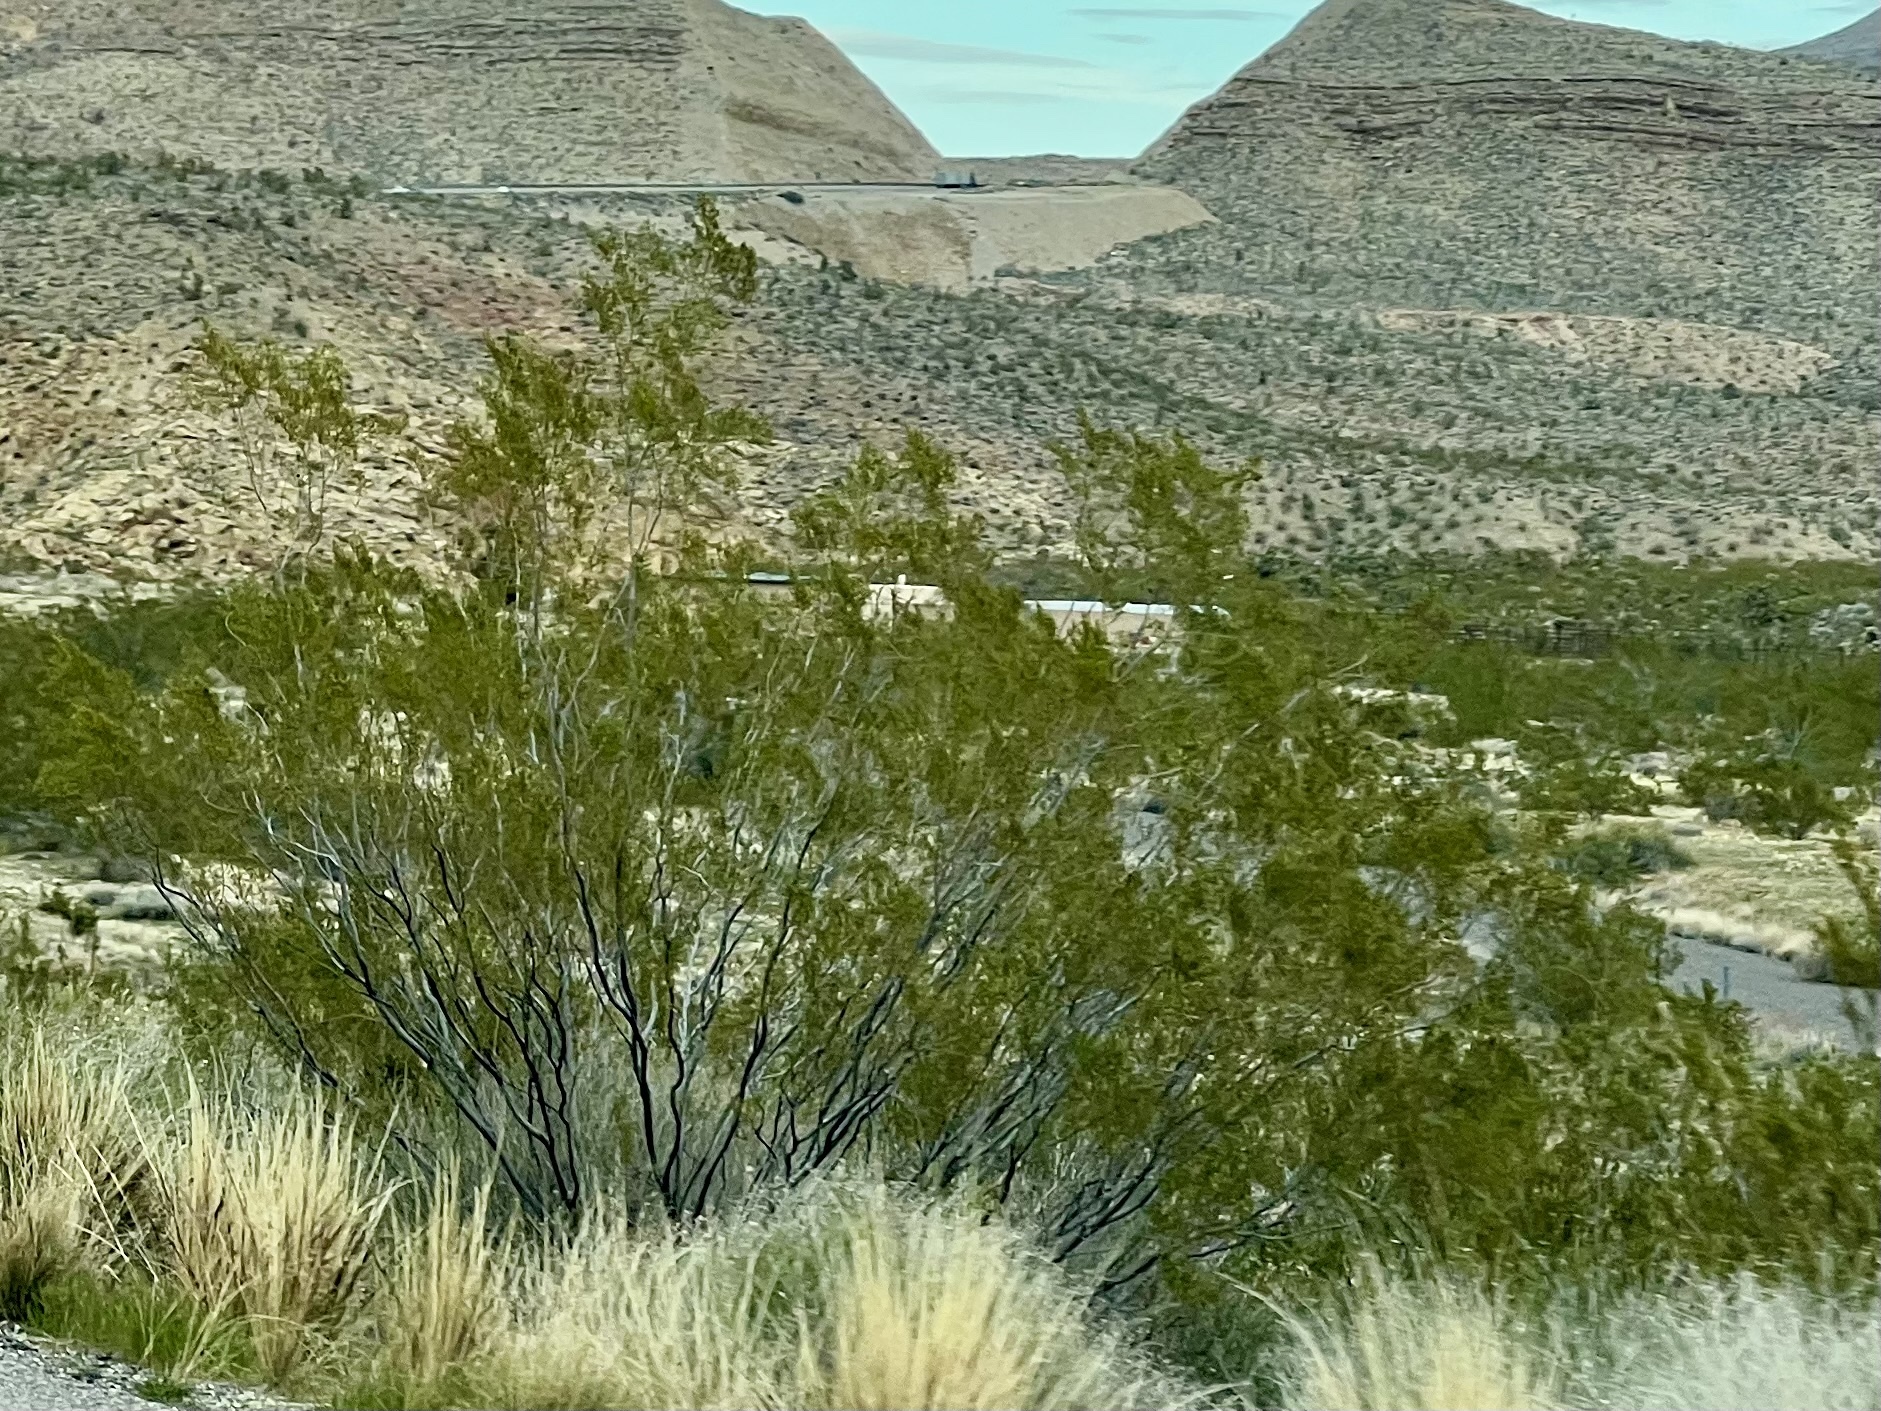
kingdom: Plantae
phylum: Tracheophyta
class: Magnoliopsida
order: Zygophyllales
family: Zygophyllaceae
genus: Larrea
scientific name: Larrea tridentata
